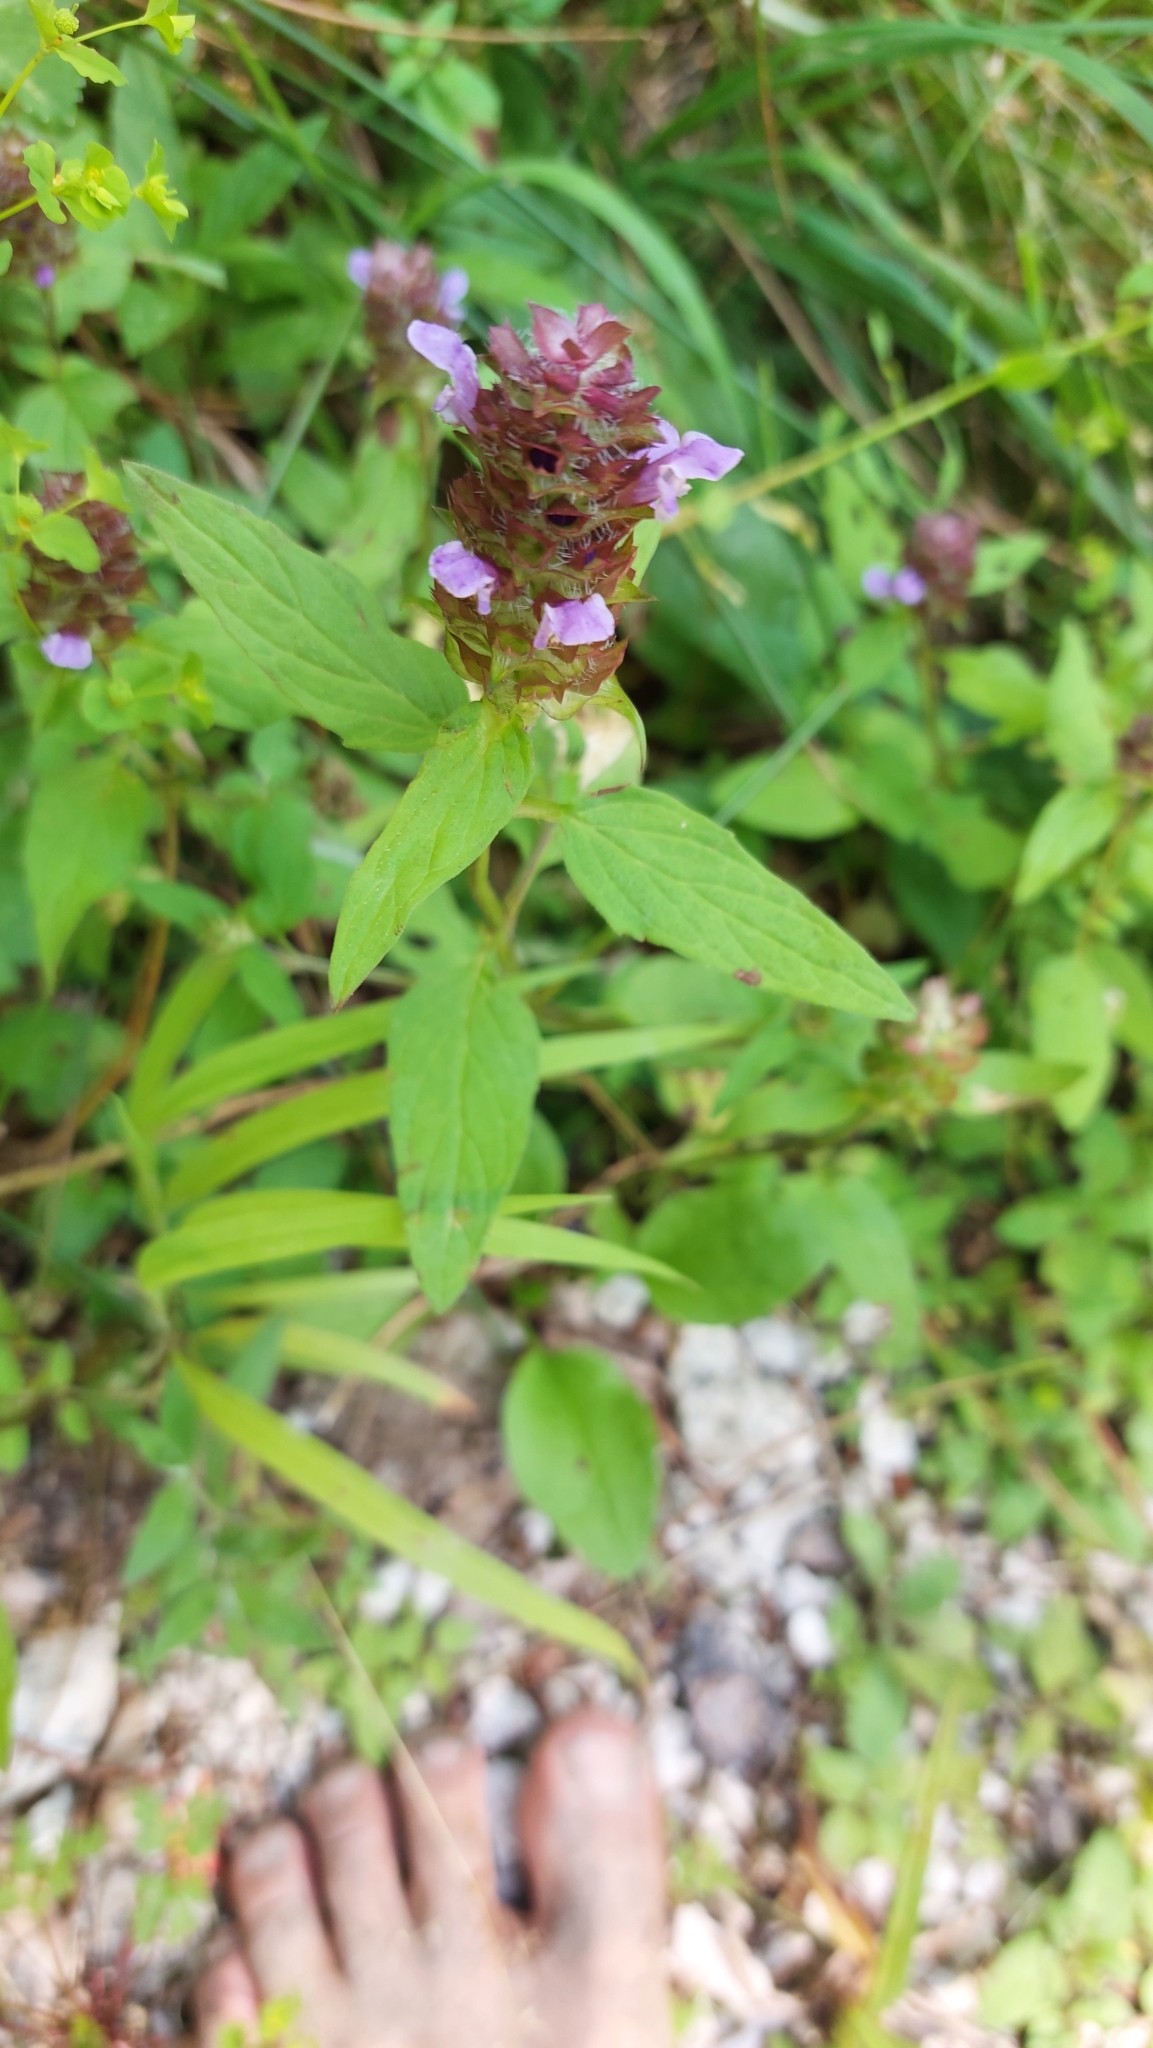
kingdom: Plantae
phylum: Tracheophyta
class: Magnoliopsida
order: Lamiales
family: Lamiaceae
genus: Prunella
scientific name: Prunella vulgaris
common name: Heal-all
